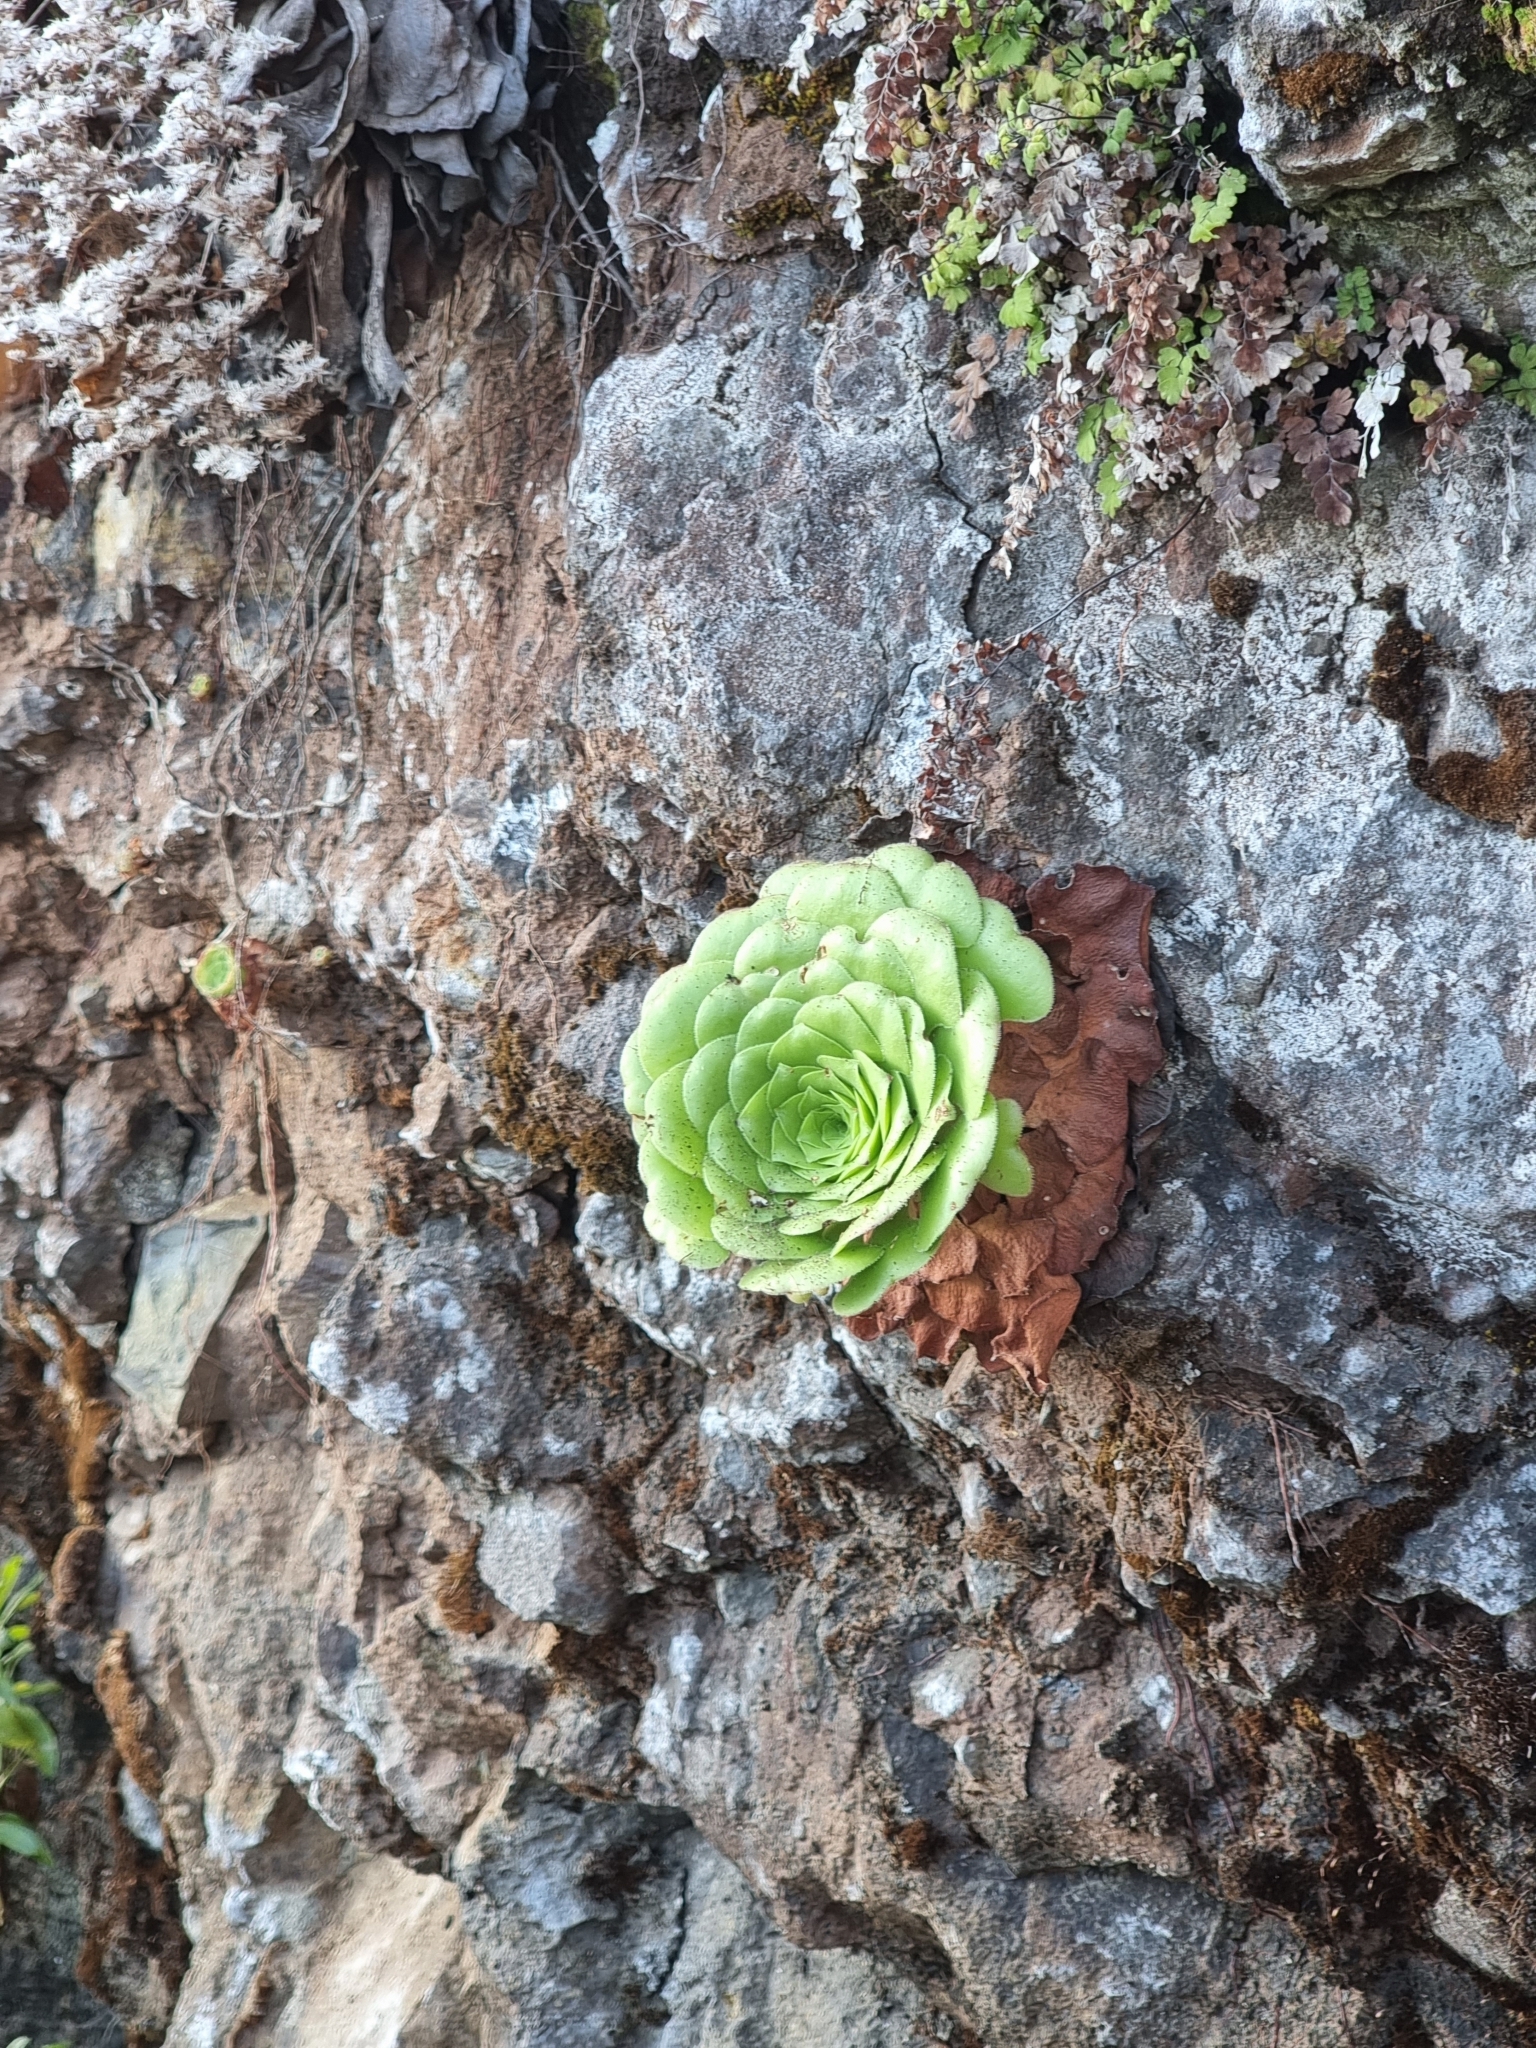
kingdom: Plantae
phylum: Tracheophyta
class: Magnoliopsida
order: Saxifragales
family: Crassulaceae
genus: Aeonium
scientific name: Aeonium glandulosum
